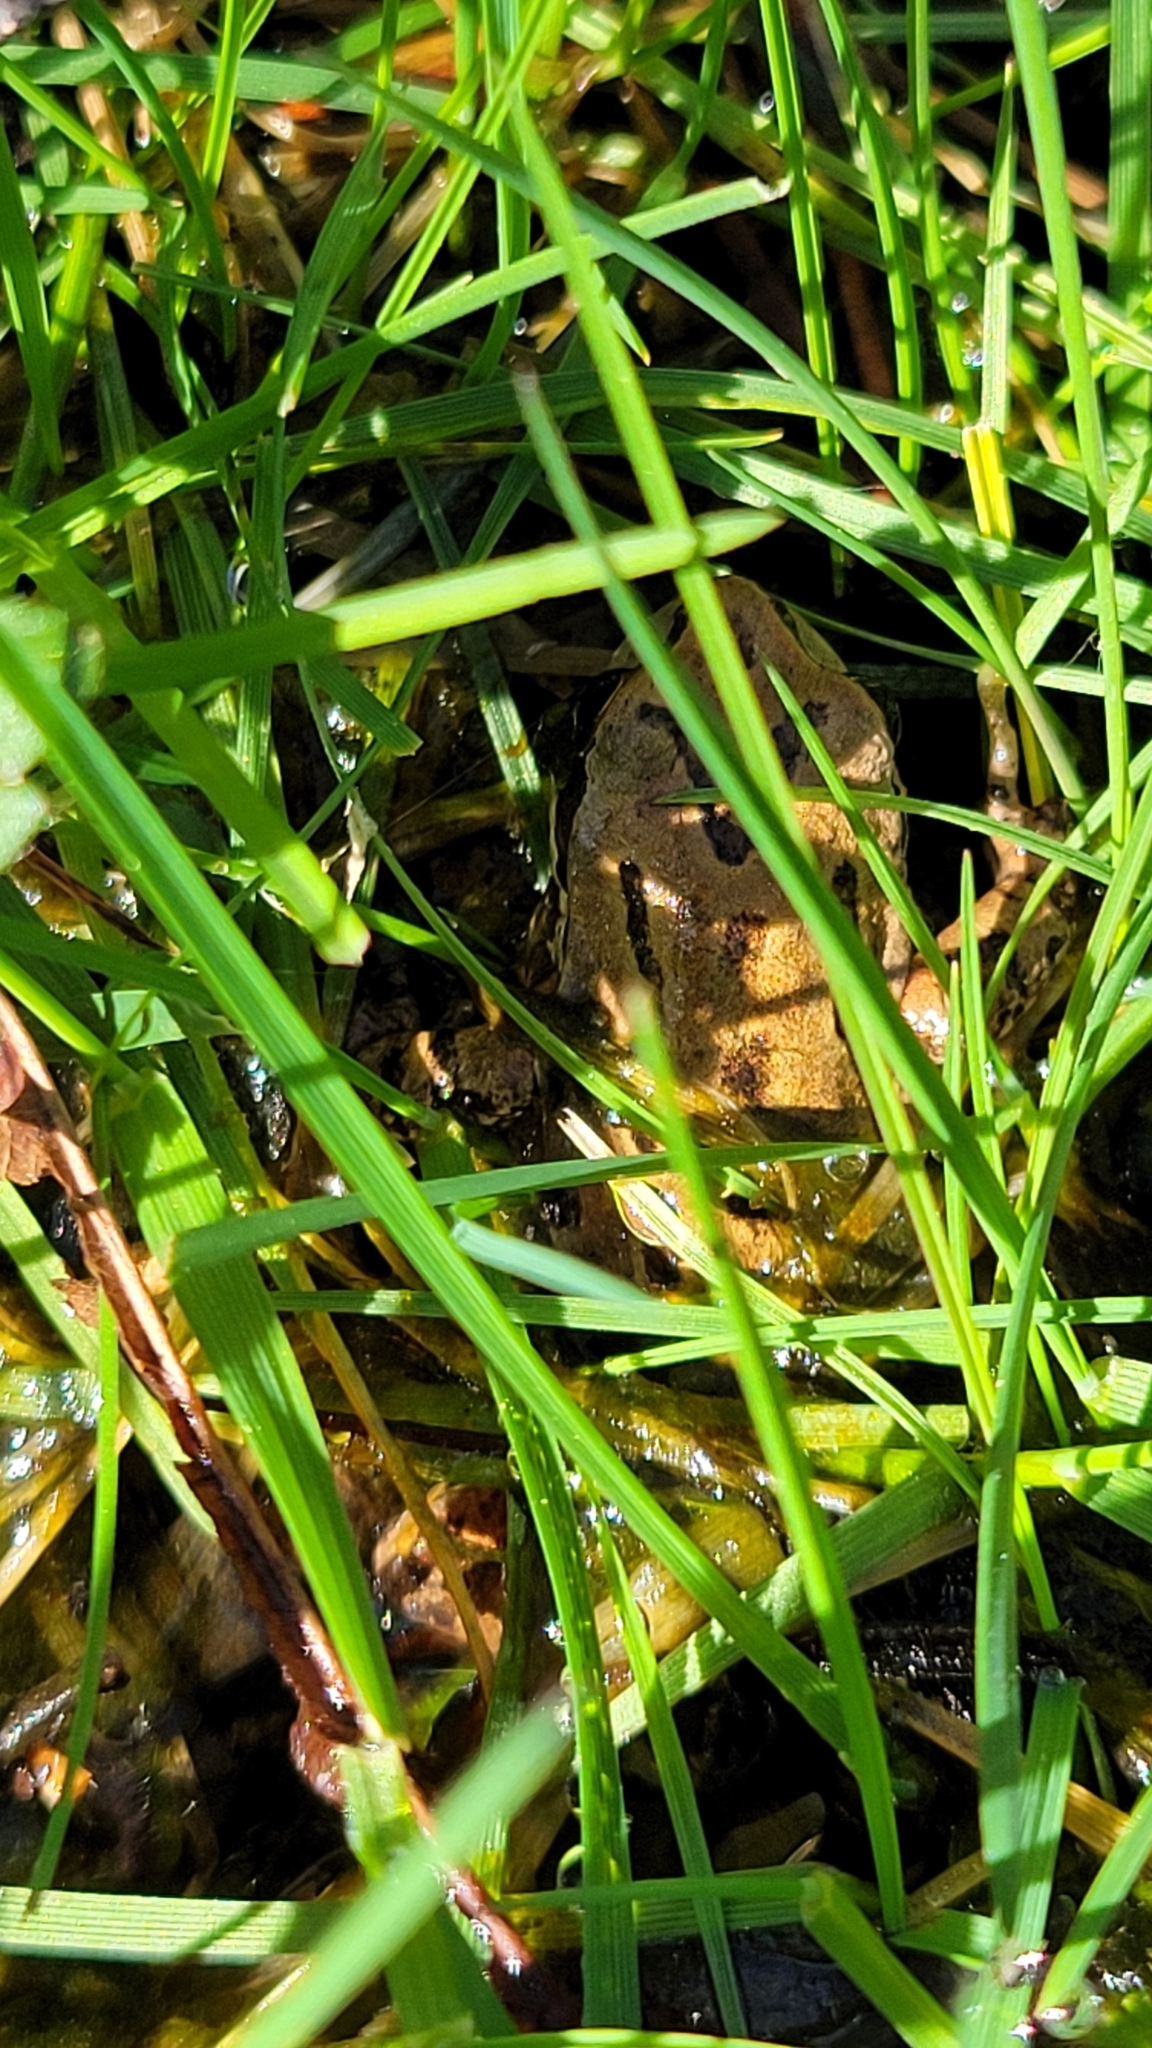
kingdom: Animalia
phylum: Chordata
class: Amphibia
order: Anura
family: Hylidae
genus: Pseudacris
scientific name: Pseudacris regilla
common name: Pacific chorus frog
